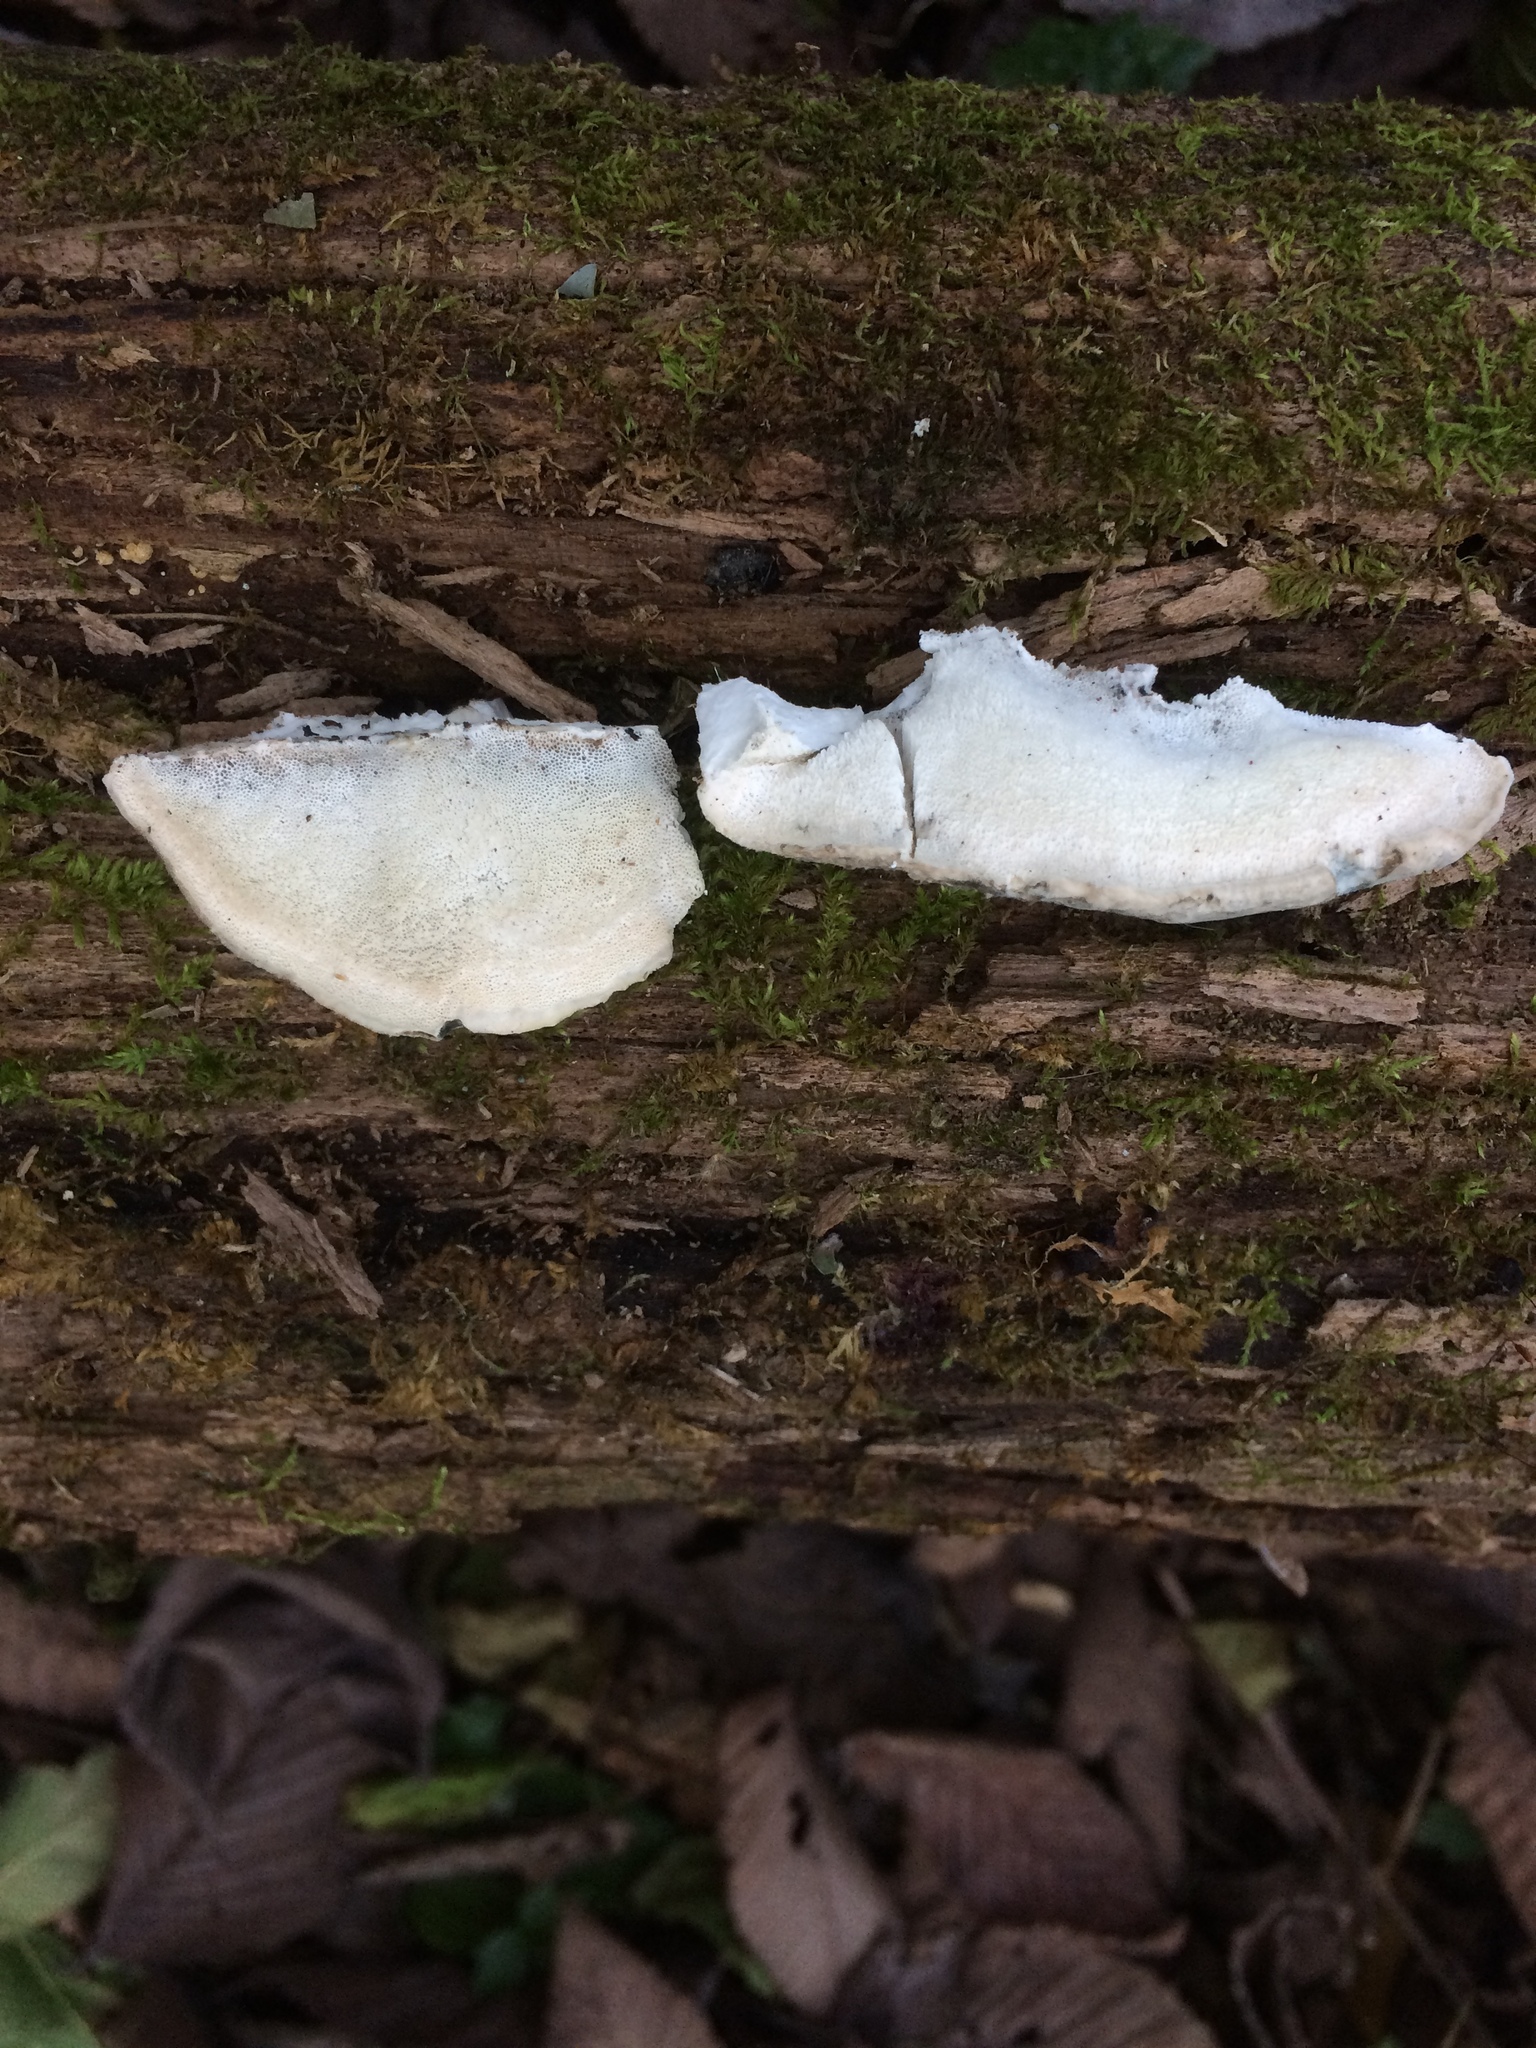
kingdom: Fungi
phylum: Basidiomycota
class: Agaricomycetes
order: Polyporales
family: Polyporaceae
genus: Cyanosporus
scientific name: Cyanosporus livens
